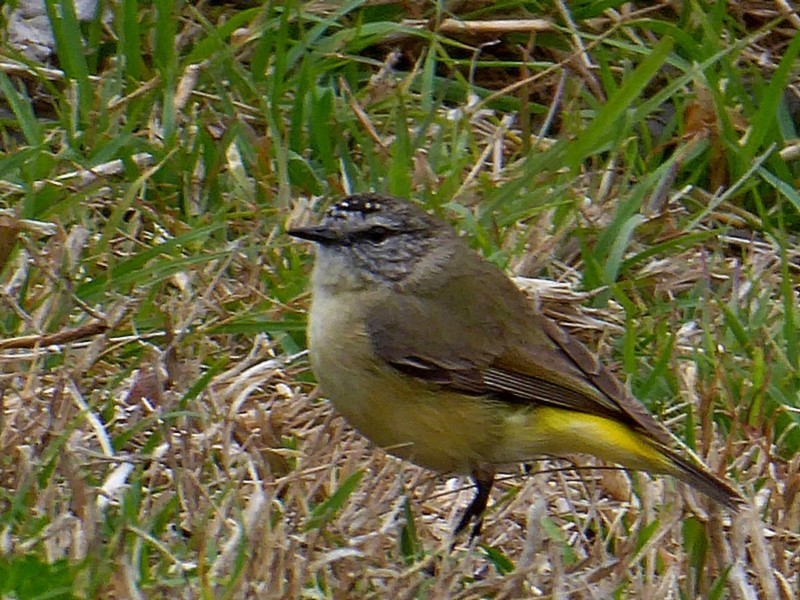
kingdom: Animalia
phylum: Chordata
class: Aves
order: Passeriformes
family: Acanthizidae
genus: Acanthiza
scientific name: Acanthiza chrysorrhoa
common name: Yellow-rumped thornbill
